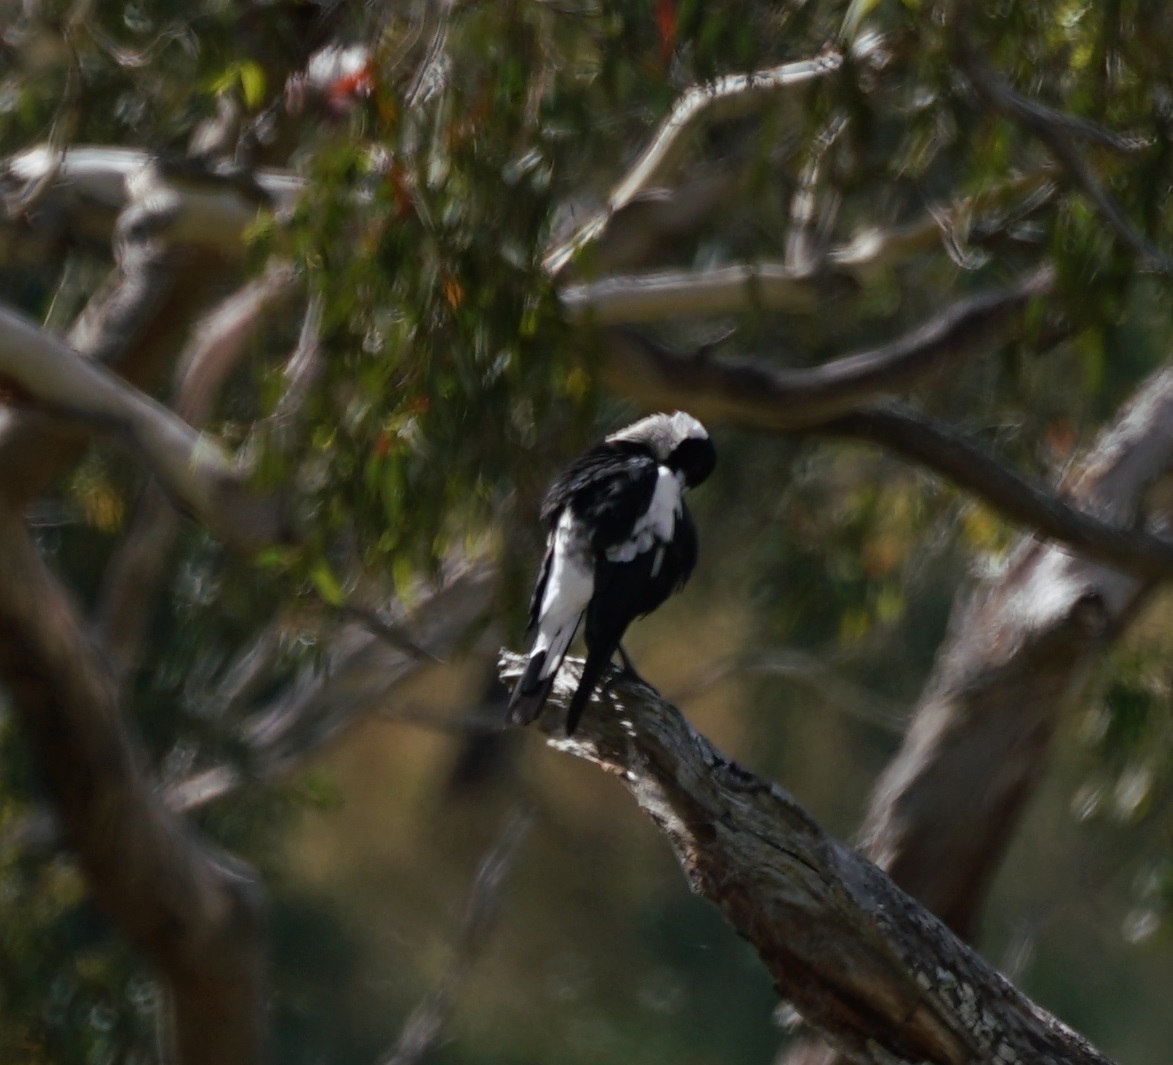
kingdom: Animalia
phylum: Chordata
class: Aves
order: Passeriformes
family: Cracticidae
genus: Gymnorhina
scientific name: Gymnorhina tibicen
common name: Australian magpie
